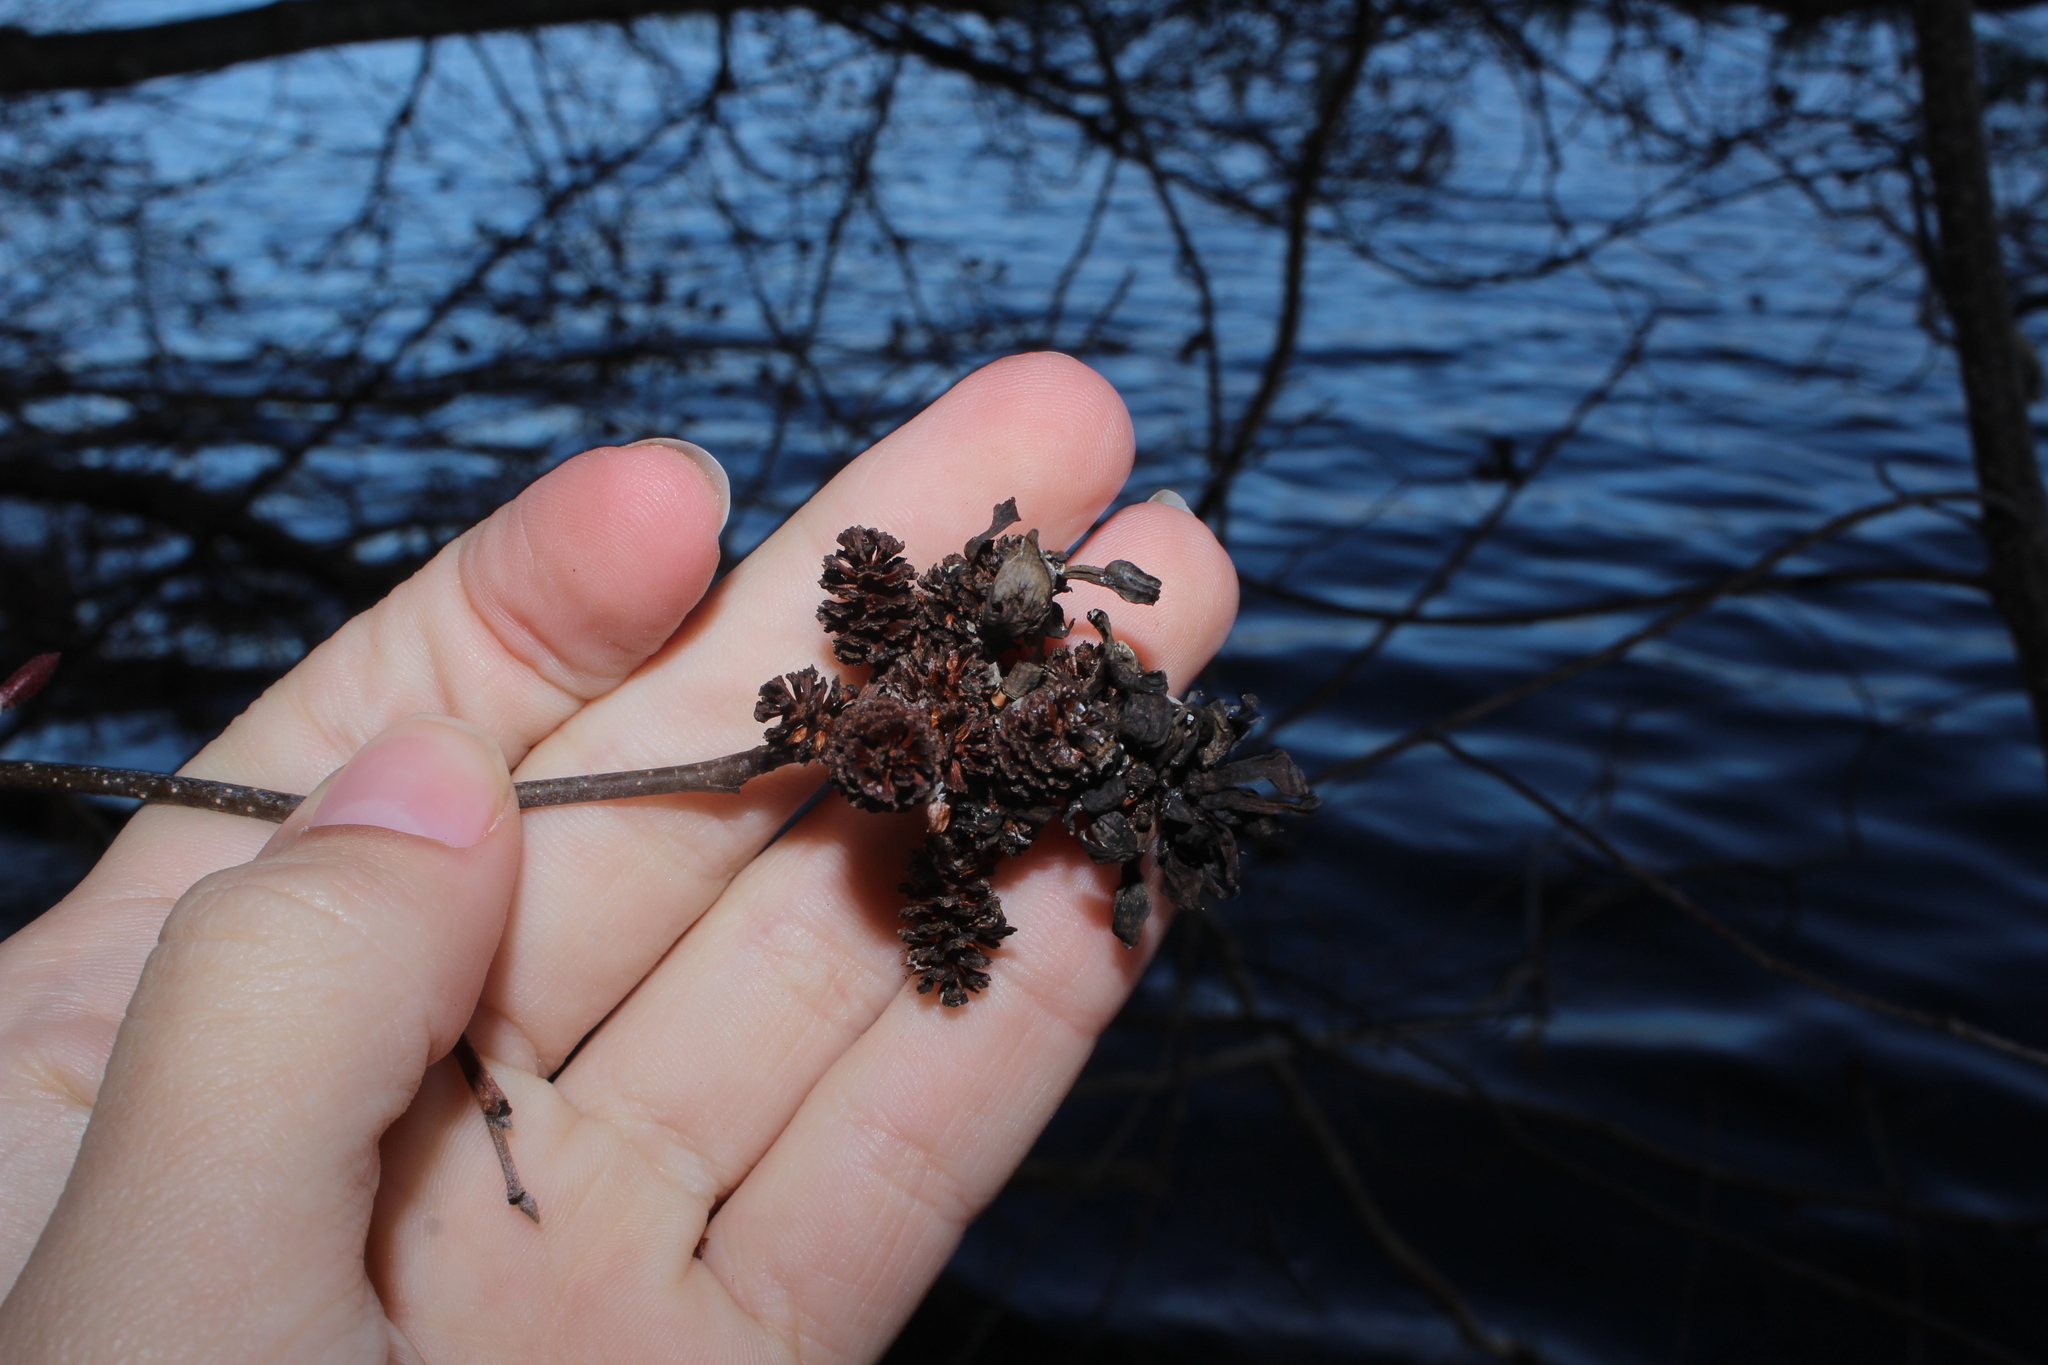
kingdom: Fungi
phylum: Ascomycota
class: Taphrinomycetes
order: Taphrinales
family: Taphrinaceae
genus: Taphrina
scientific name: Taphrina robinsoniana
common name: Eastern american alder tongue gall fungus
